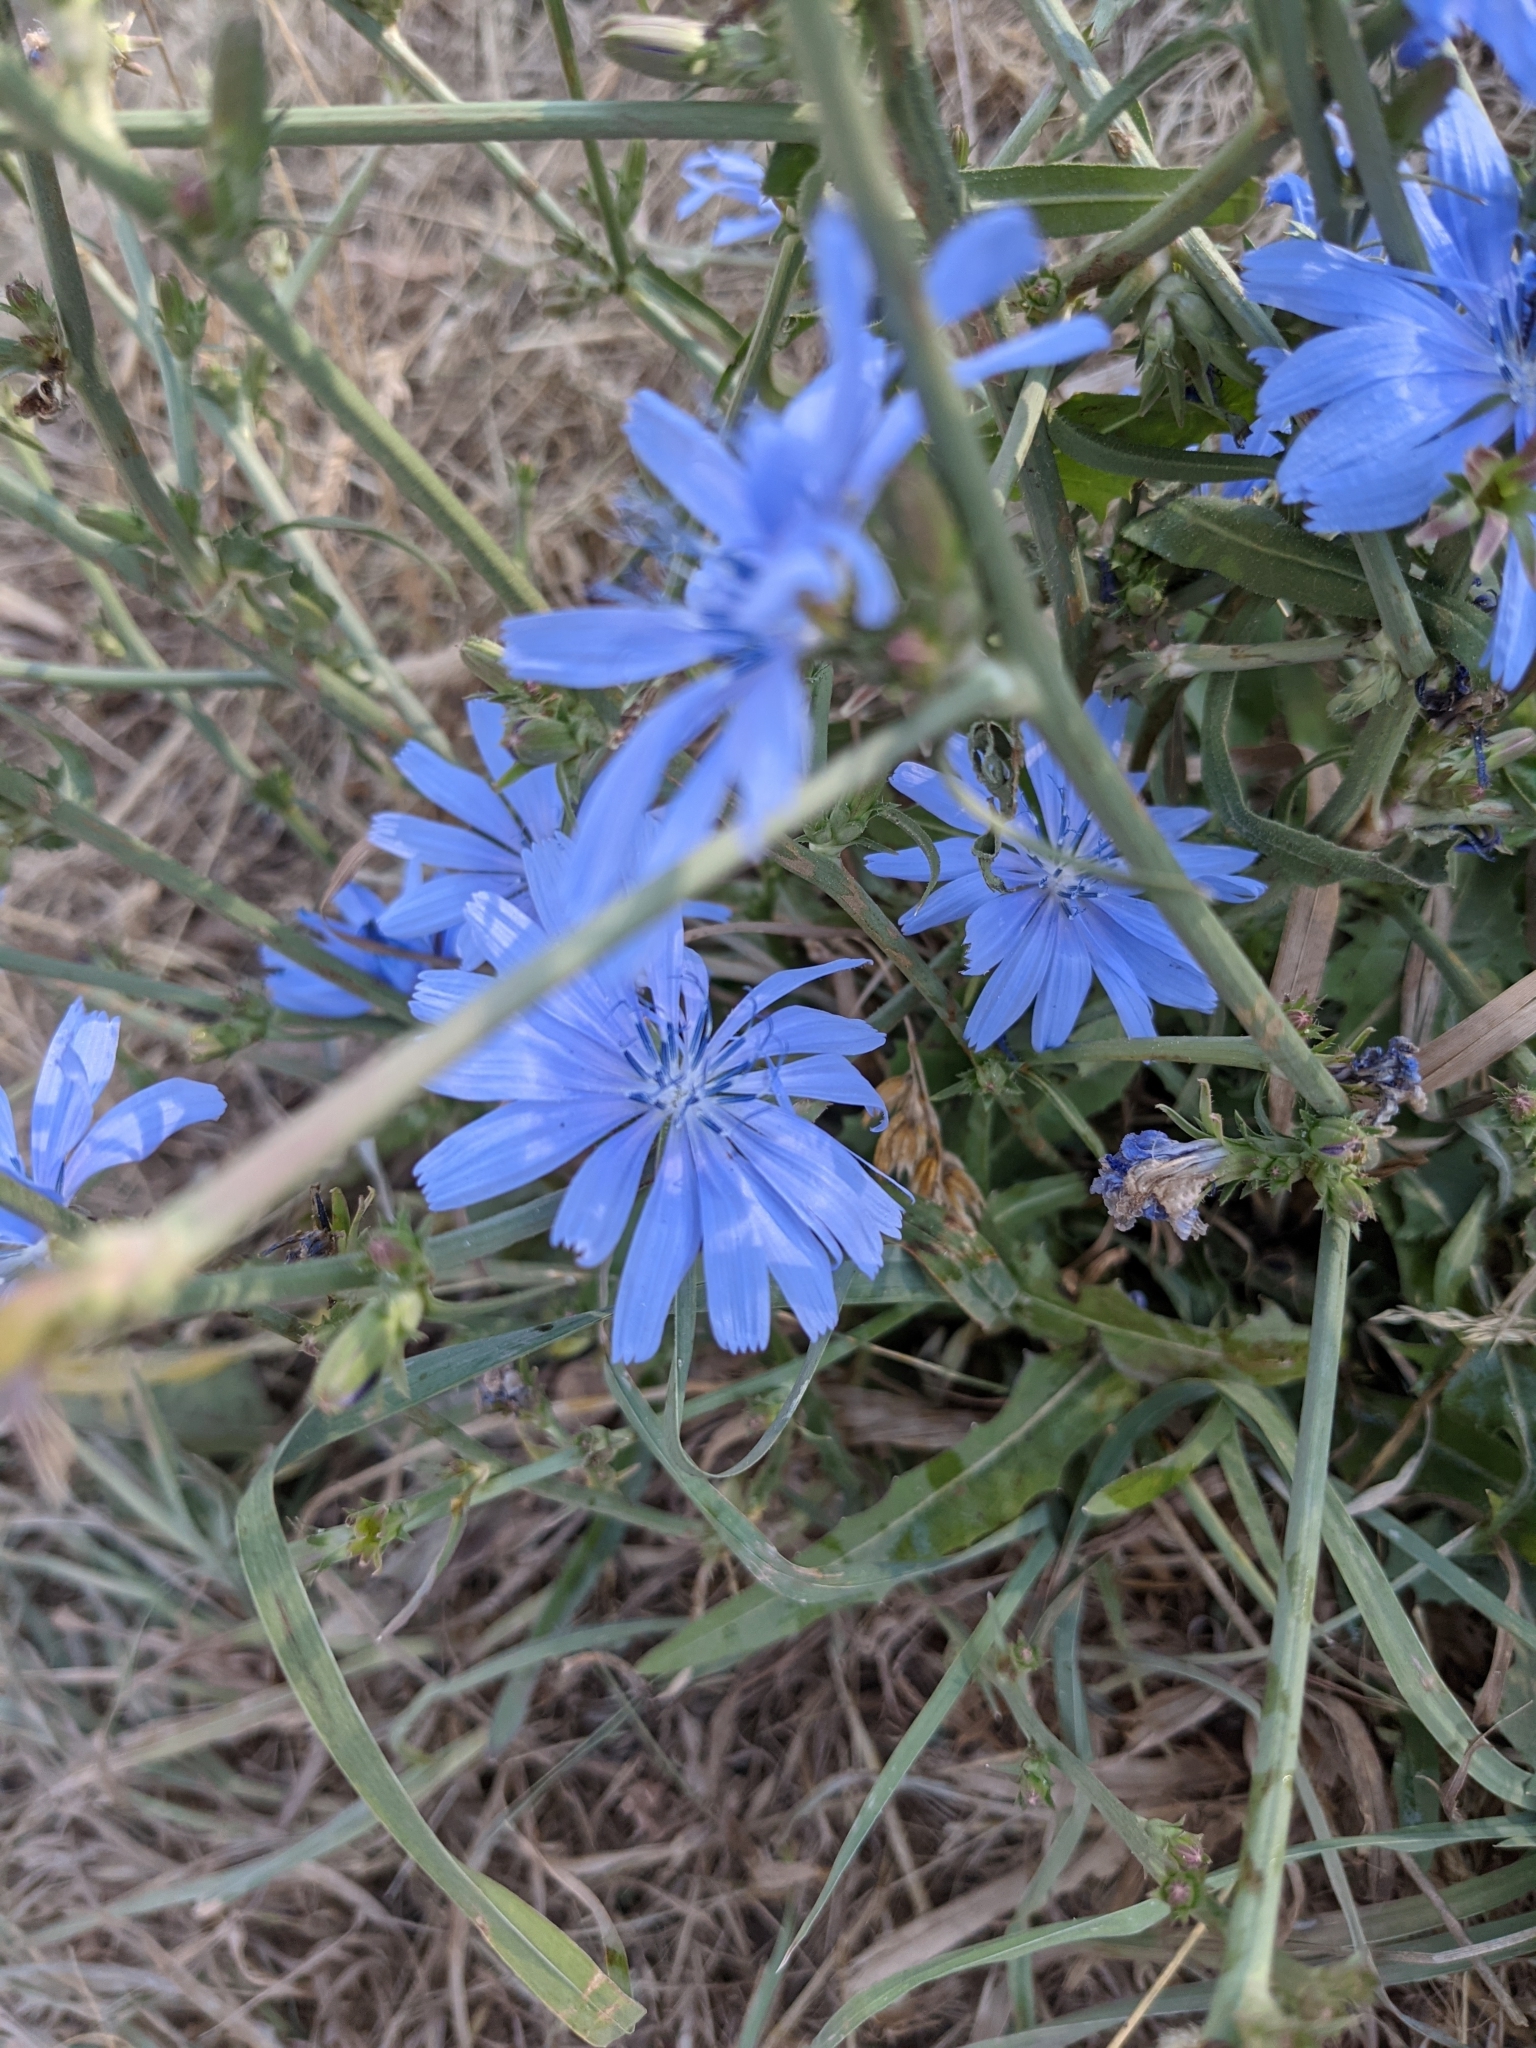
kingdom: Plantae
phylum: Tracheophyta
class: Magnoliopsida
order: Asterales
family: Asteraceae
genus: Cichorium
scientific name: Cichorium intybus
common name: Chicory
